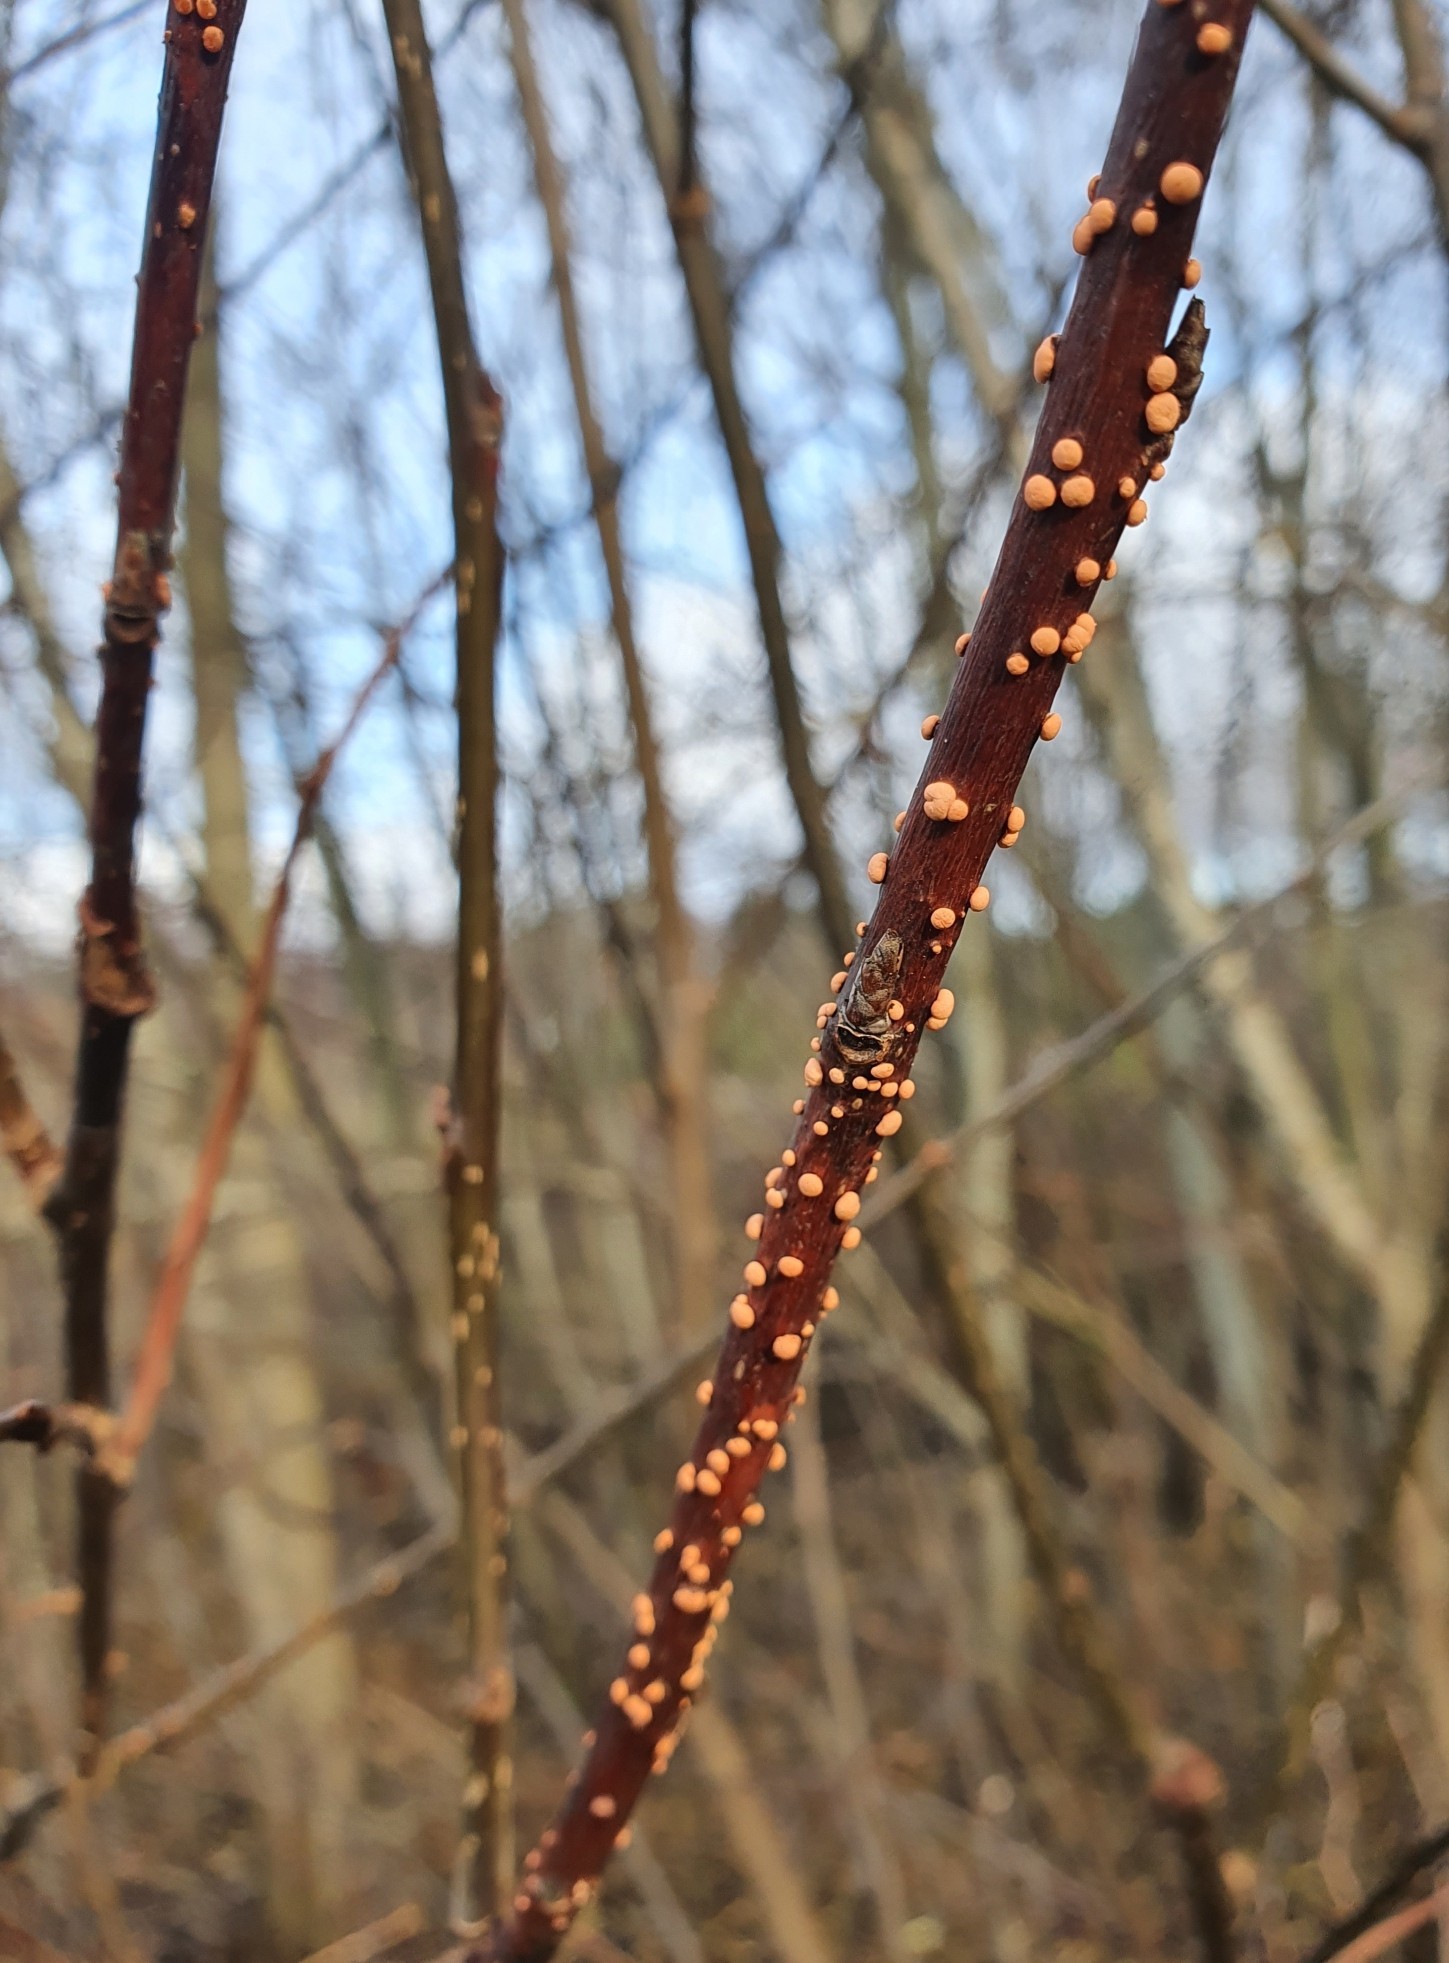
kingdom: Fungi
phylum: Ascomycota
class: Sordariomycetes
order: Hypocreales
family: Nectriaceae
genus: Nectria
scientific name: Nectria cinnabarina
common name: Coral spot
